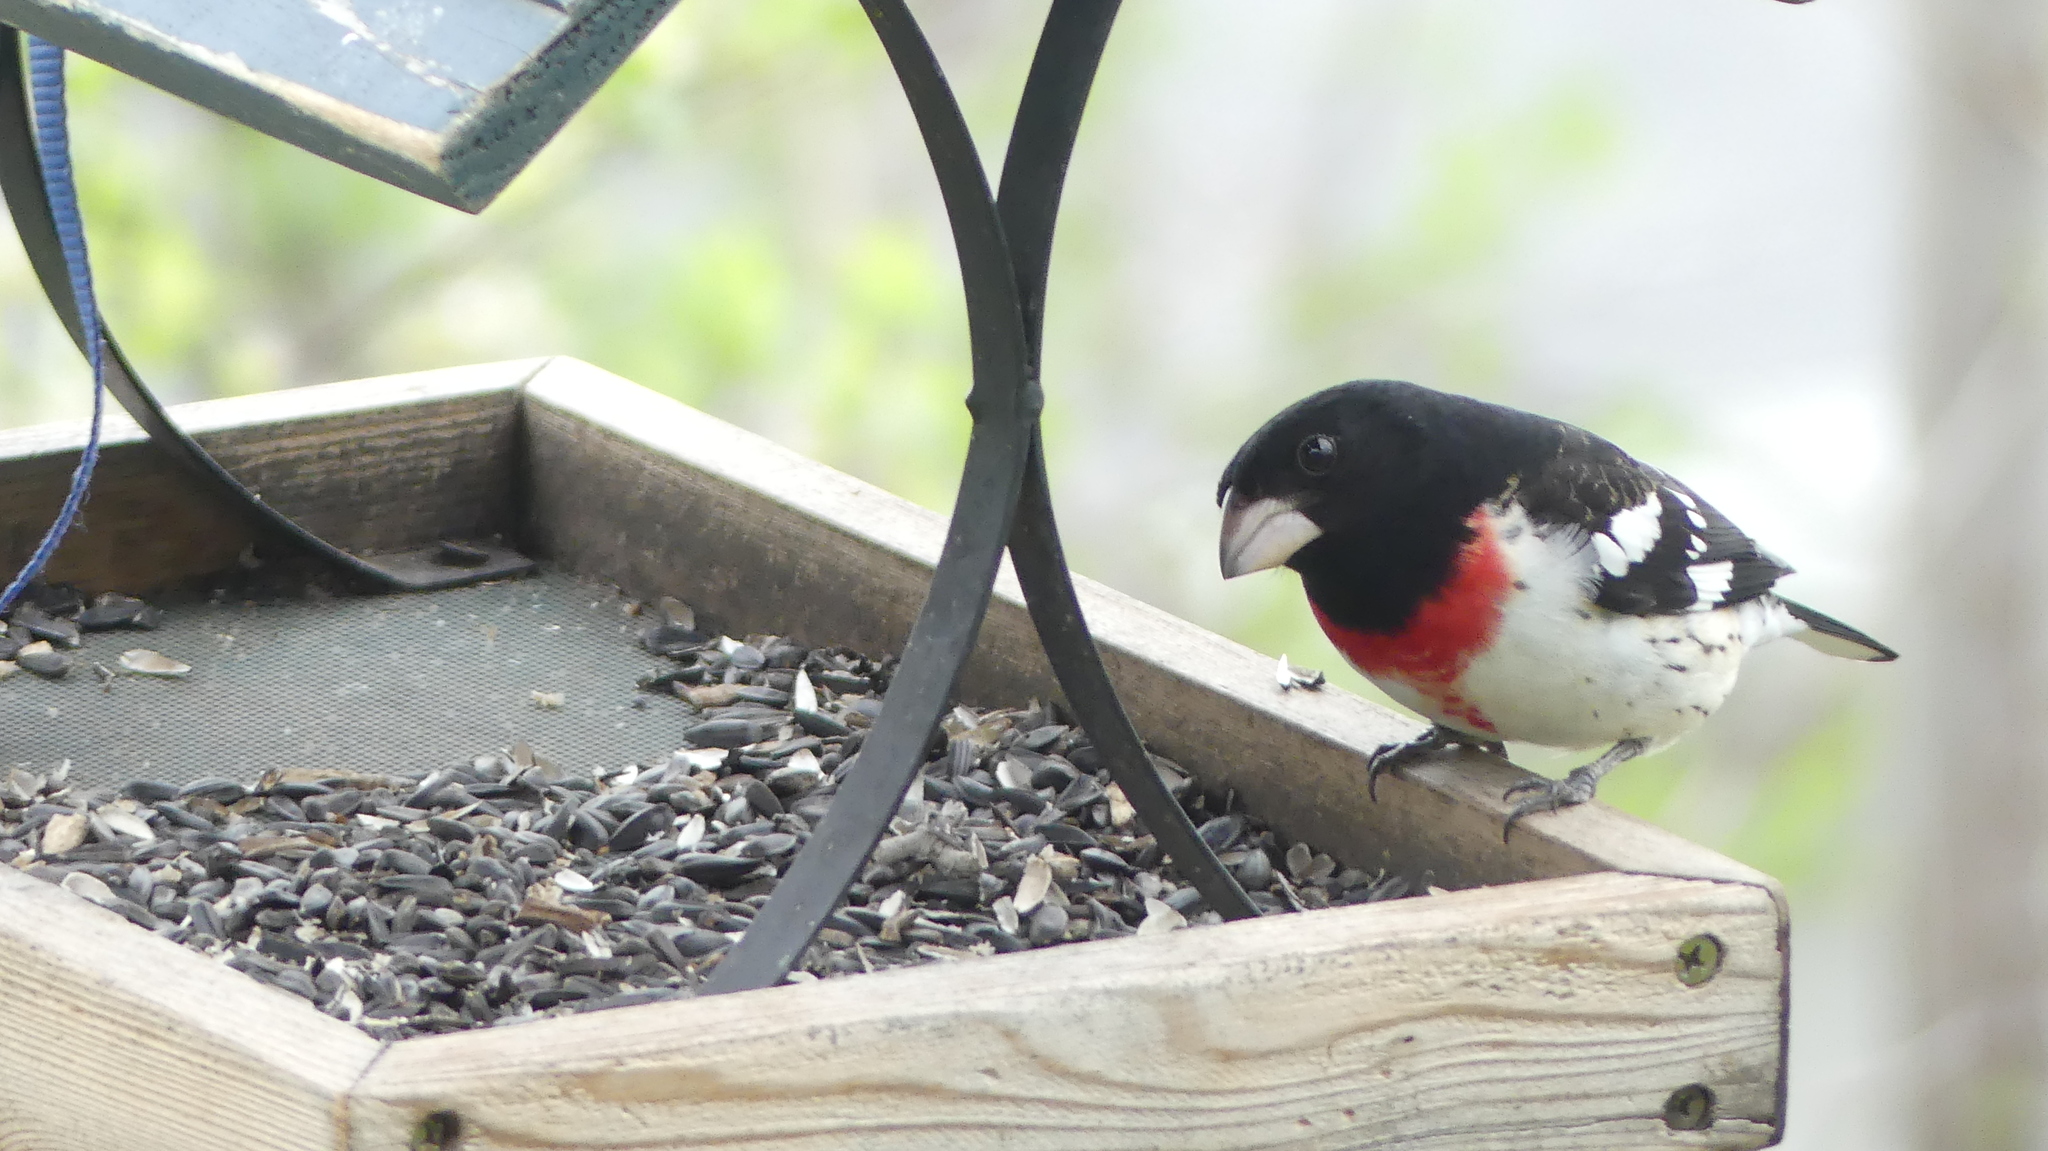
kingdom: Animalia
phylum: Chordata
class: Aves
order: Passeriformes
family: Cardinalidae
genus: Pheucticus
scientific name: Pheucticus ludovicianus
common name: Rose-breasted grosbeak
